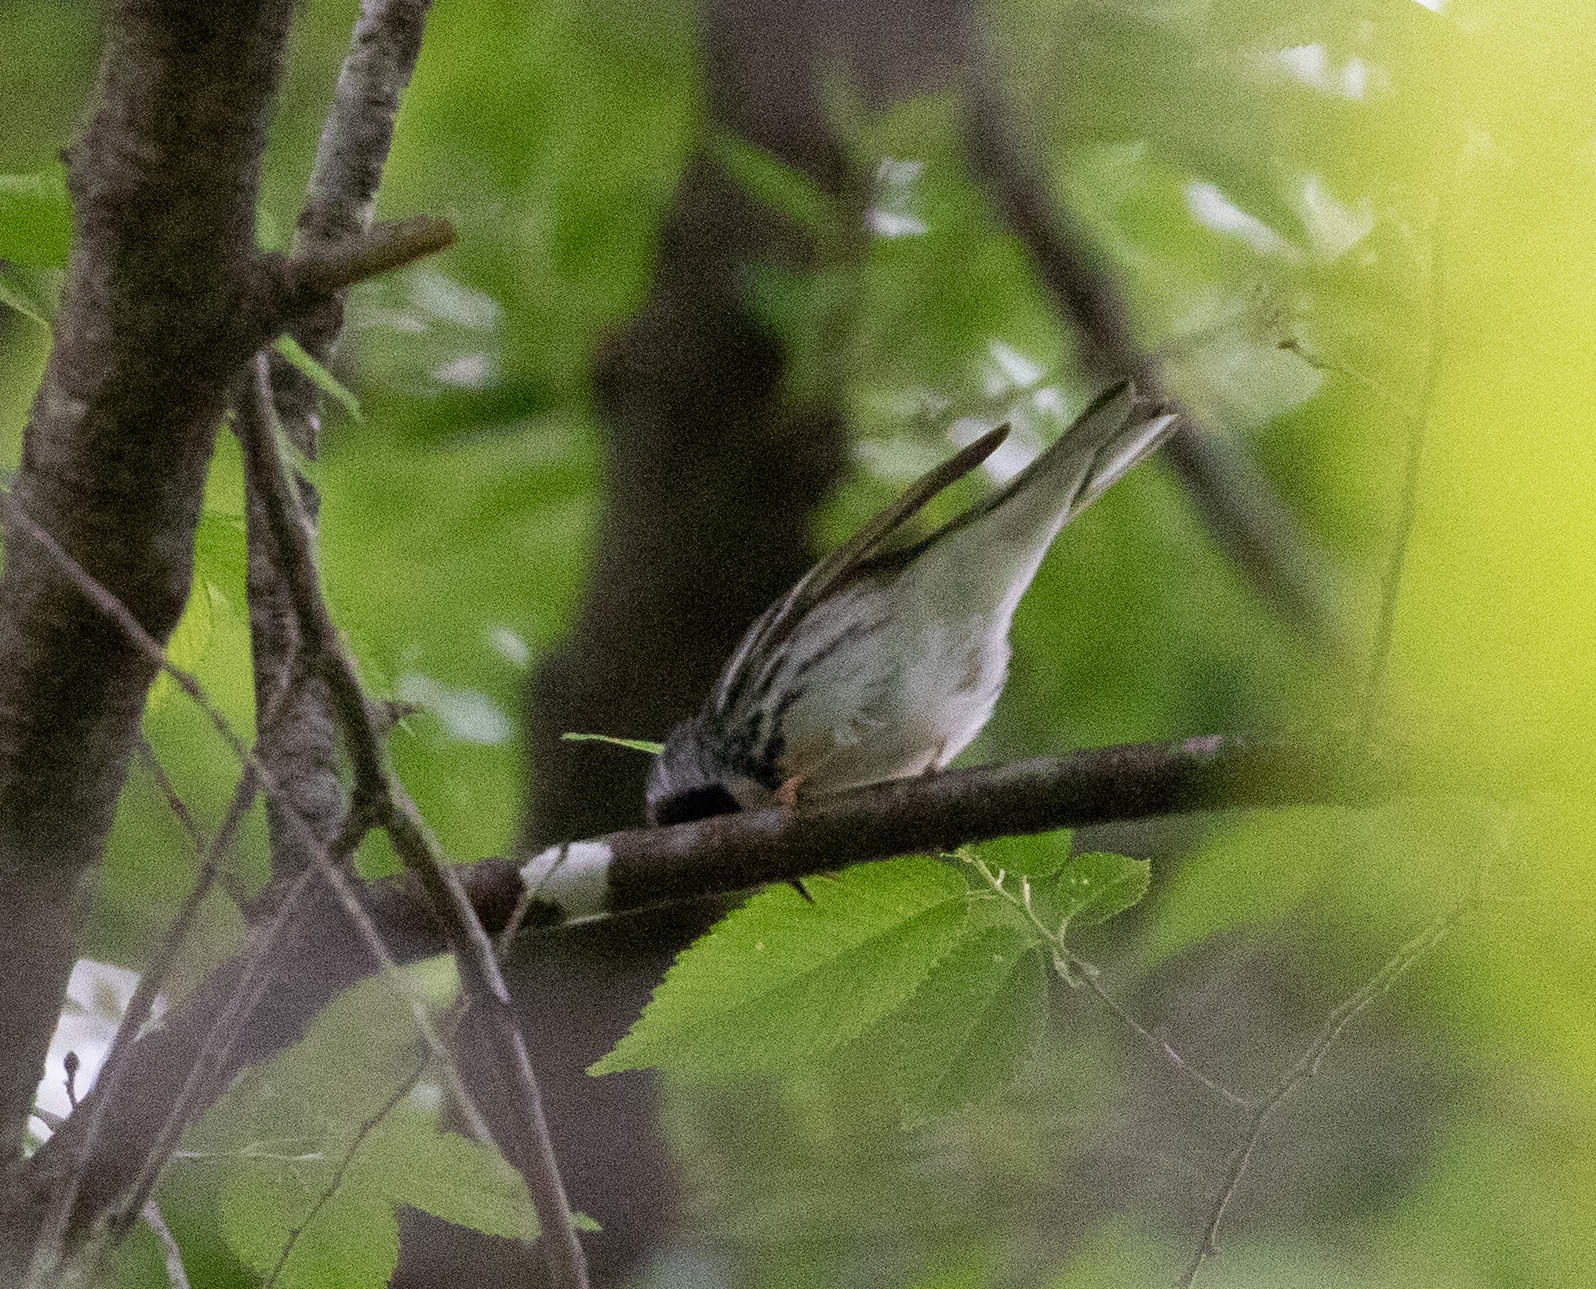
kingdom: Animalia
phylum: Chordata
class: Aves
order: Passeriformes
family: Parulidae
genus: Setophaga
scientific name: Setophaga striata
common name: Blackpoll warbler
